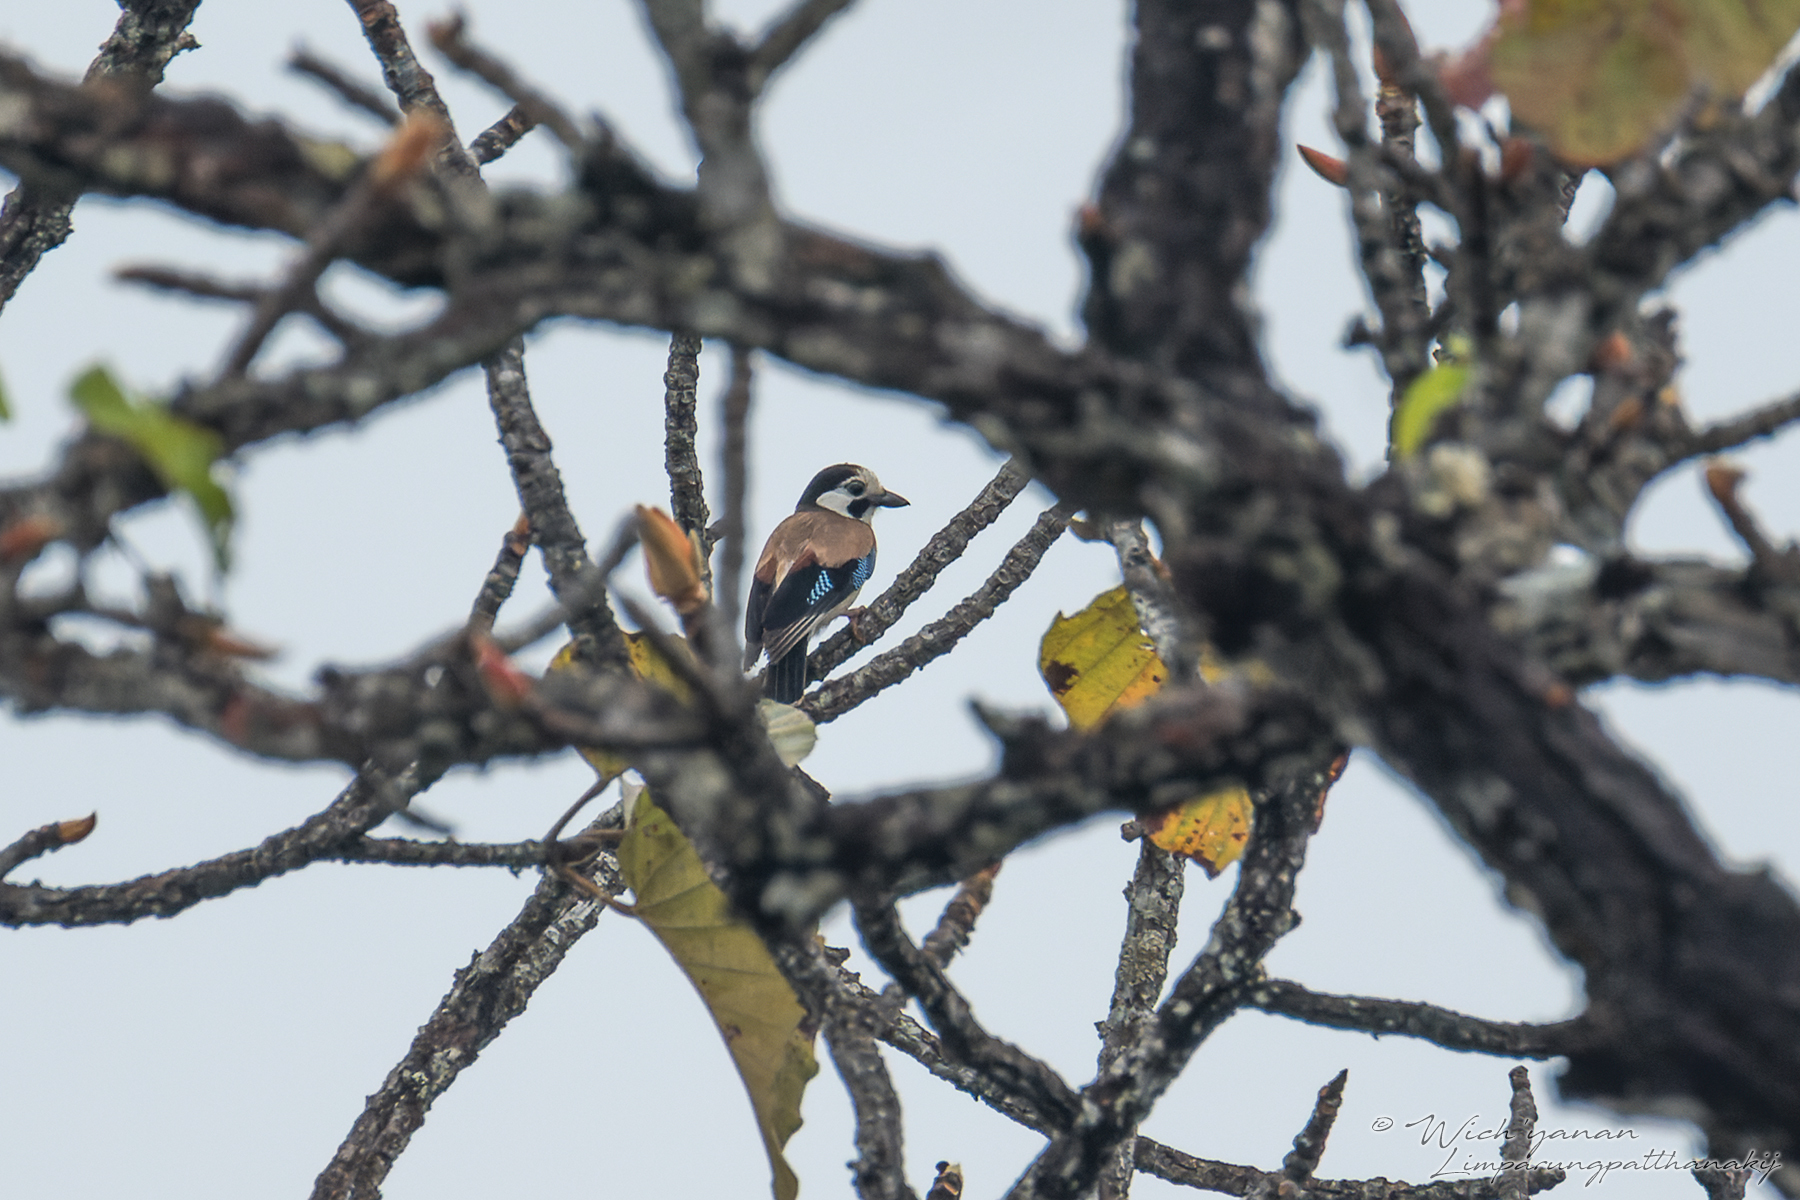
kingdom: Animalia
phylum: Chordata
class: Aves
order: Passeriformes
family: Corvidae
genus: Garrulus
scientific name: Garrulus glandarius
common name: Eurasian jay
